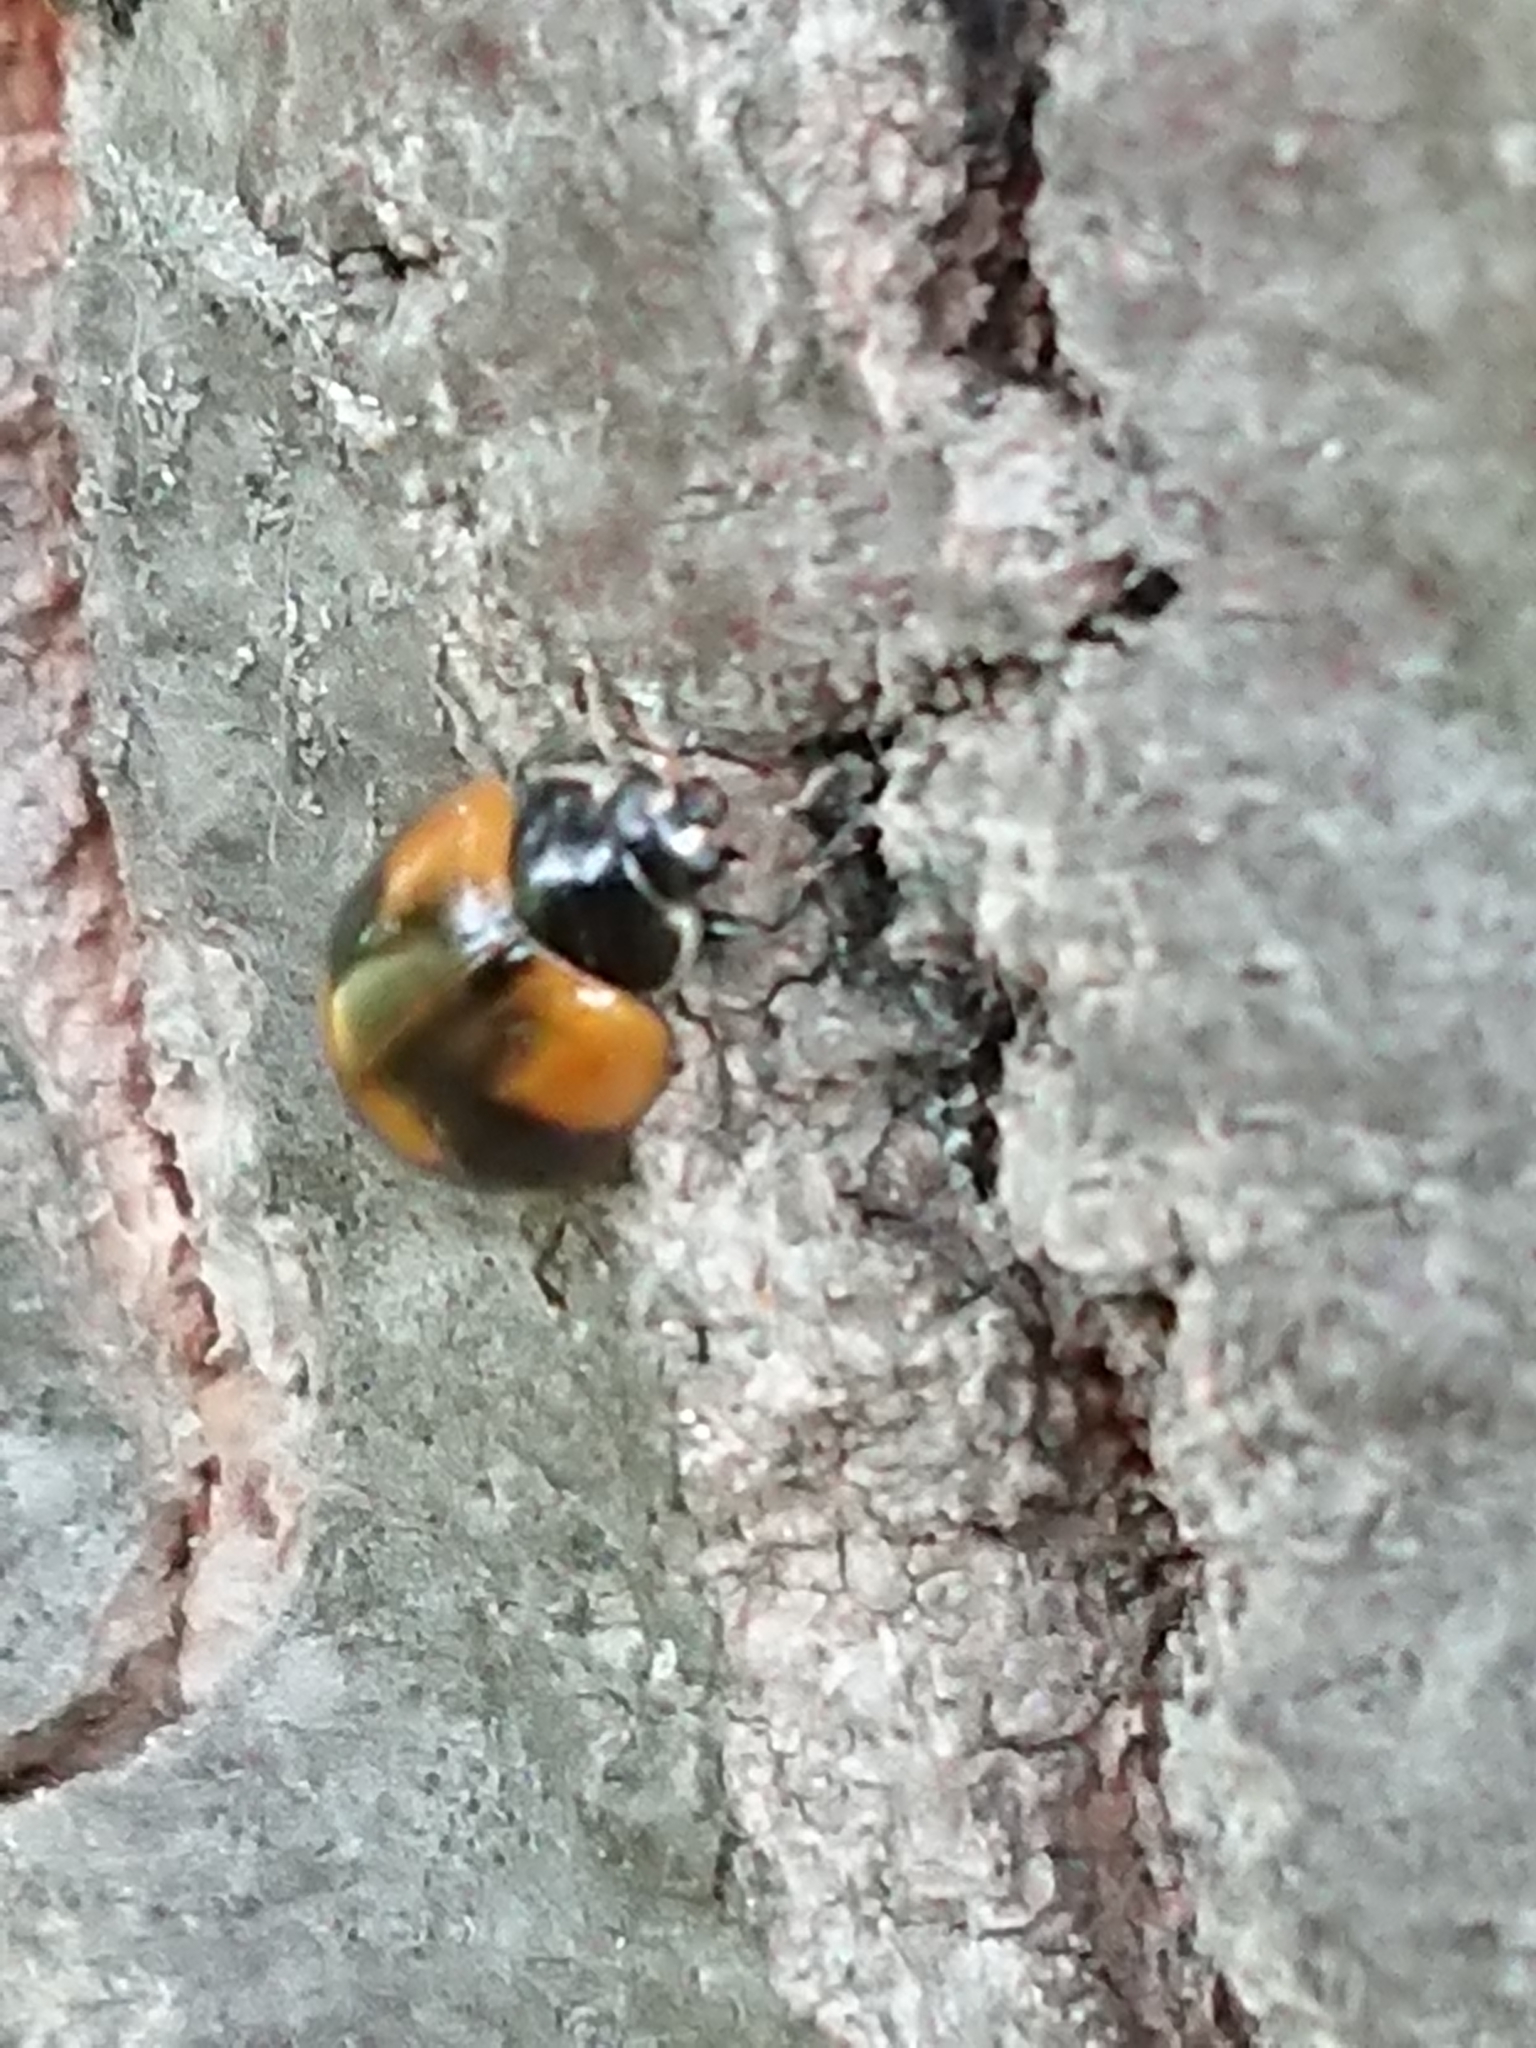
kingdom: Animalia
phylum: Arthropoda
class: Insecta
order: Coleoptera
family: Coccinellidae
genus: Adalia
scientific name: Adalia bipunctata
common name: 2-spot ladybird
